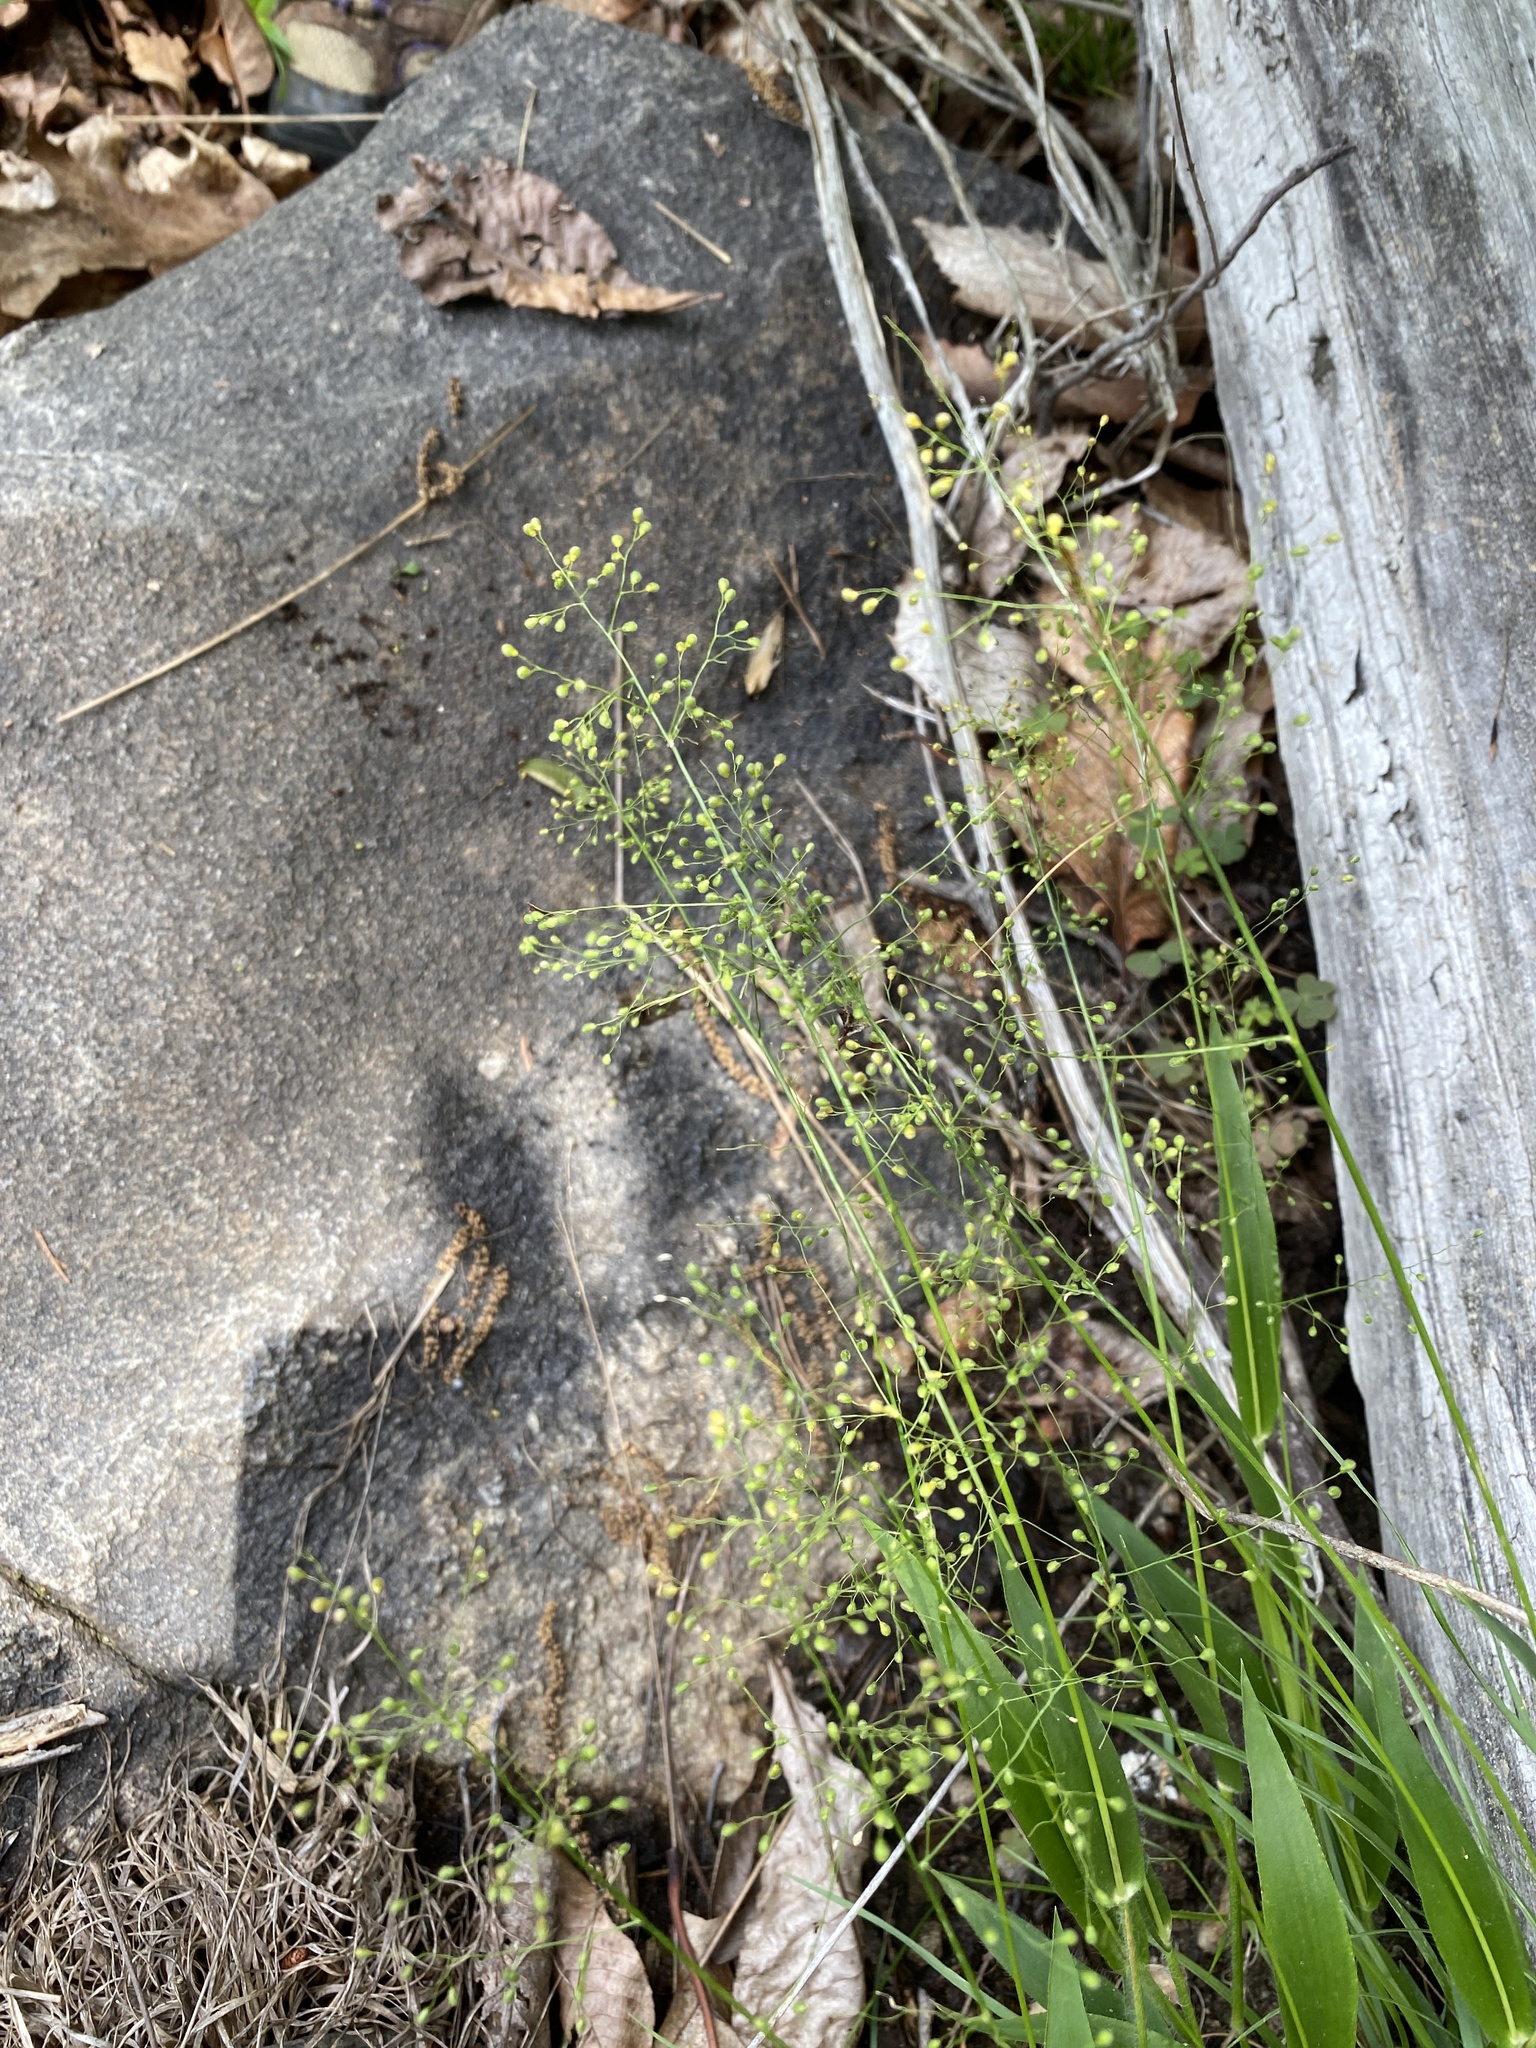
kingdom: Plantae
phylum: Tracheophyta
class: Liliopsida
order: Poales
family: Poaceae
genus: Dichanthelium
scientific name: Dichanthelium laxiflorum
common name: Soft-tuft panic grass
